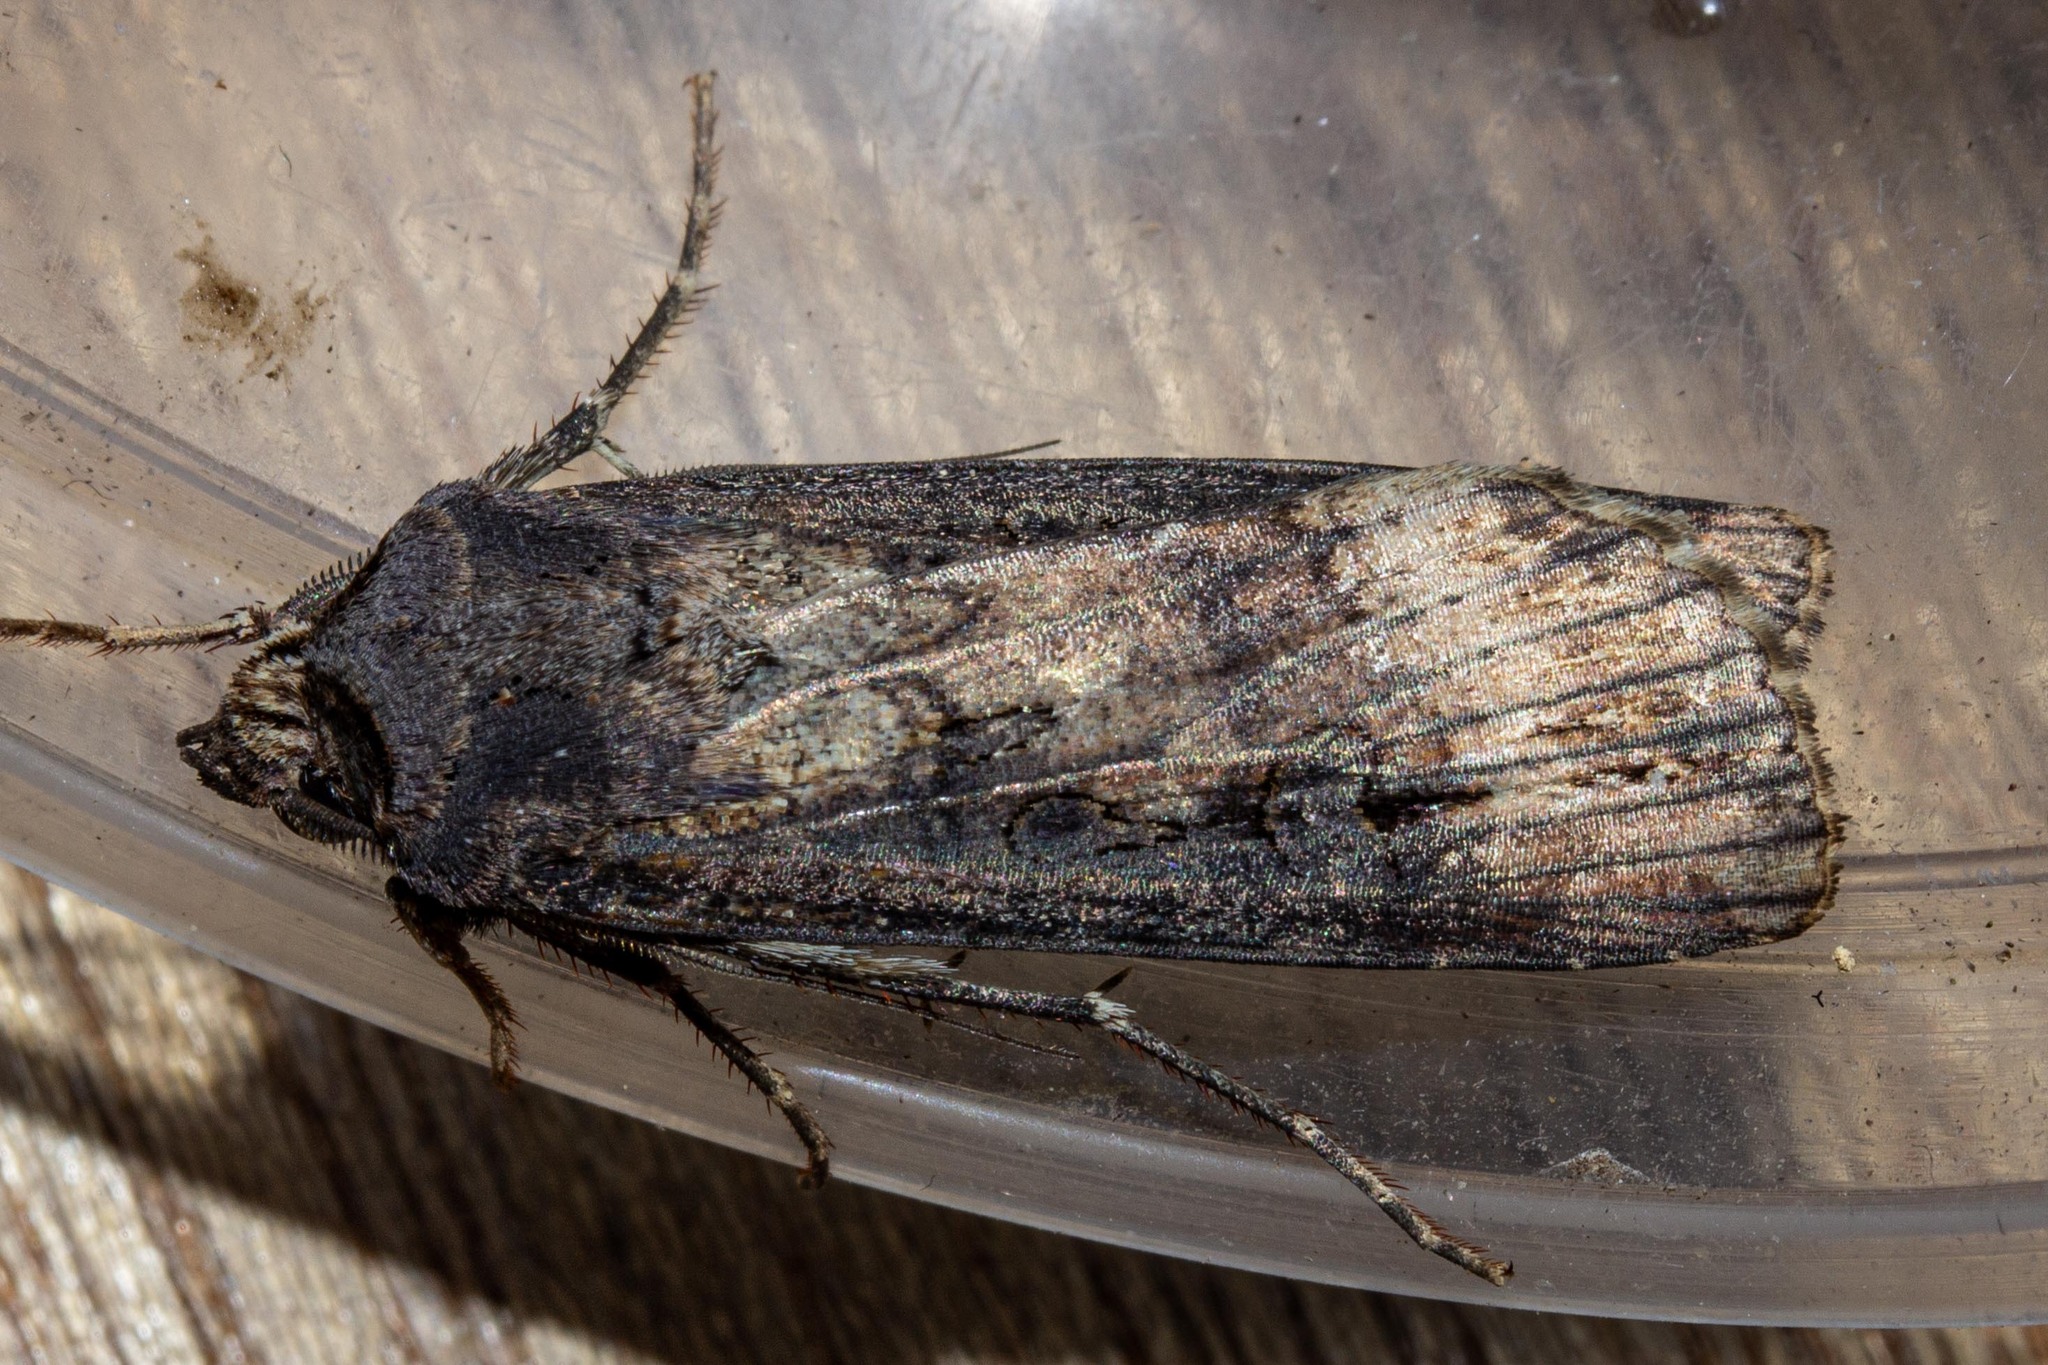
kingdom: Animalia
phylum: Arthropoda
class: Insecta
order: Lepidoptera
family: Noctuidae
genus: Agrotis
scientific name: Agrotis ipsilon
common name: Dark sword-grass
